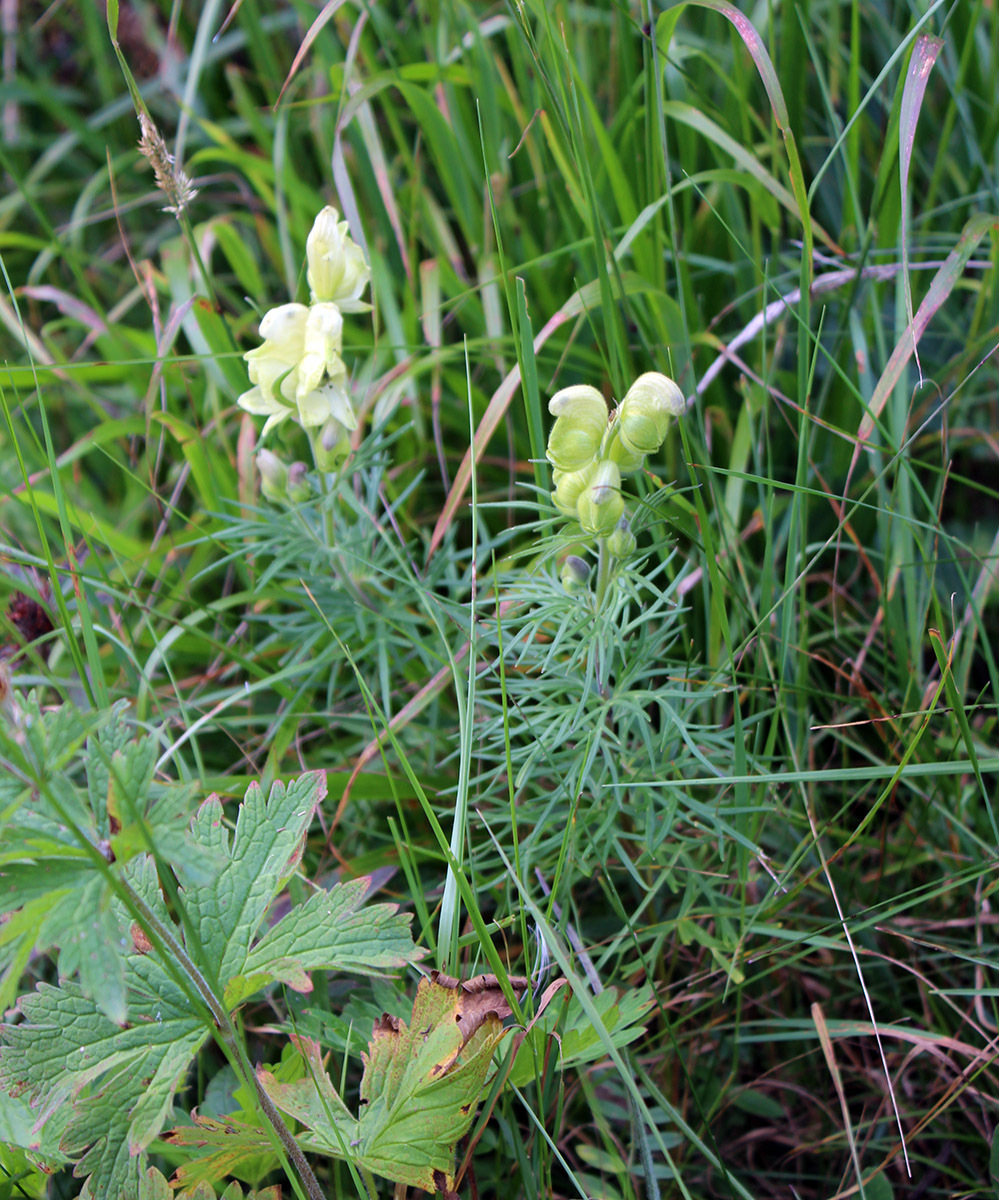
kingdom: Plantae
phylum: Tracheophyta
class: Magnoliopsida
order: Ranunculales
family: Ranunculaceae
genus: Aconitum
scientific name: Aconitum anthora
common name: Yellow monkshood
